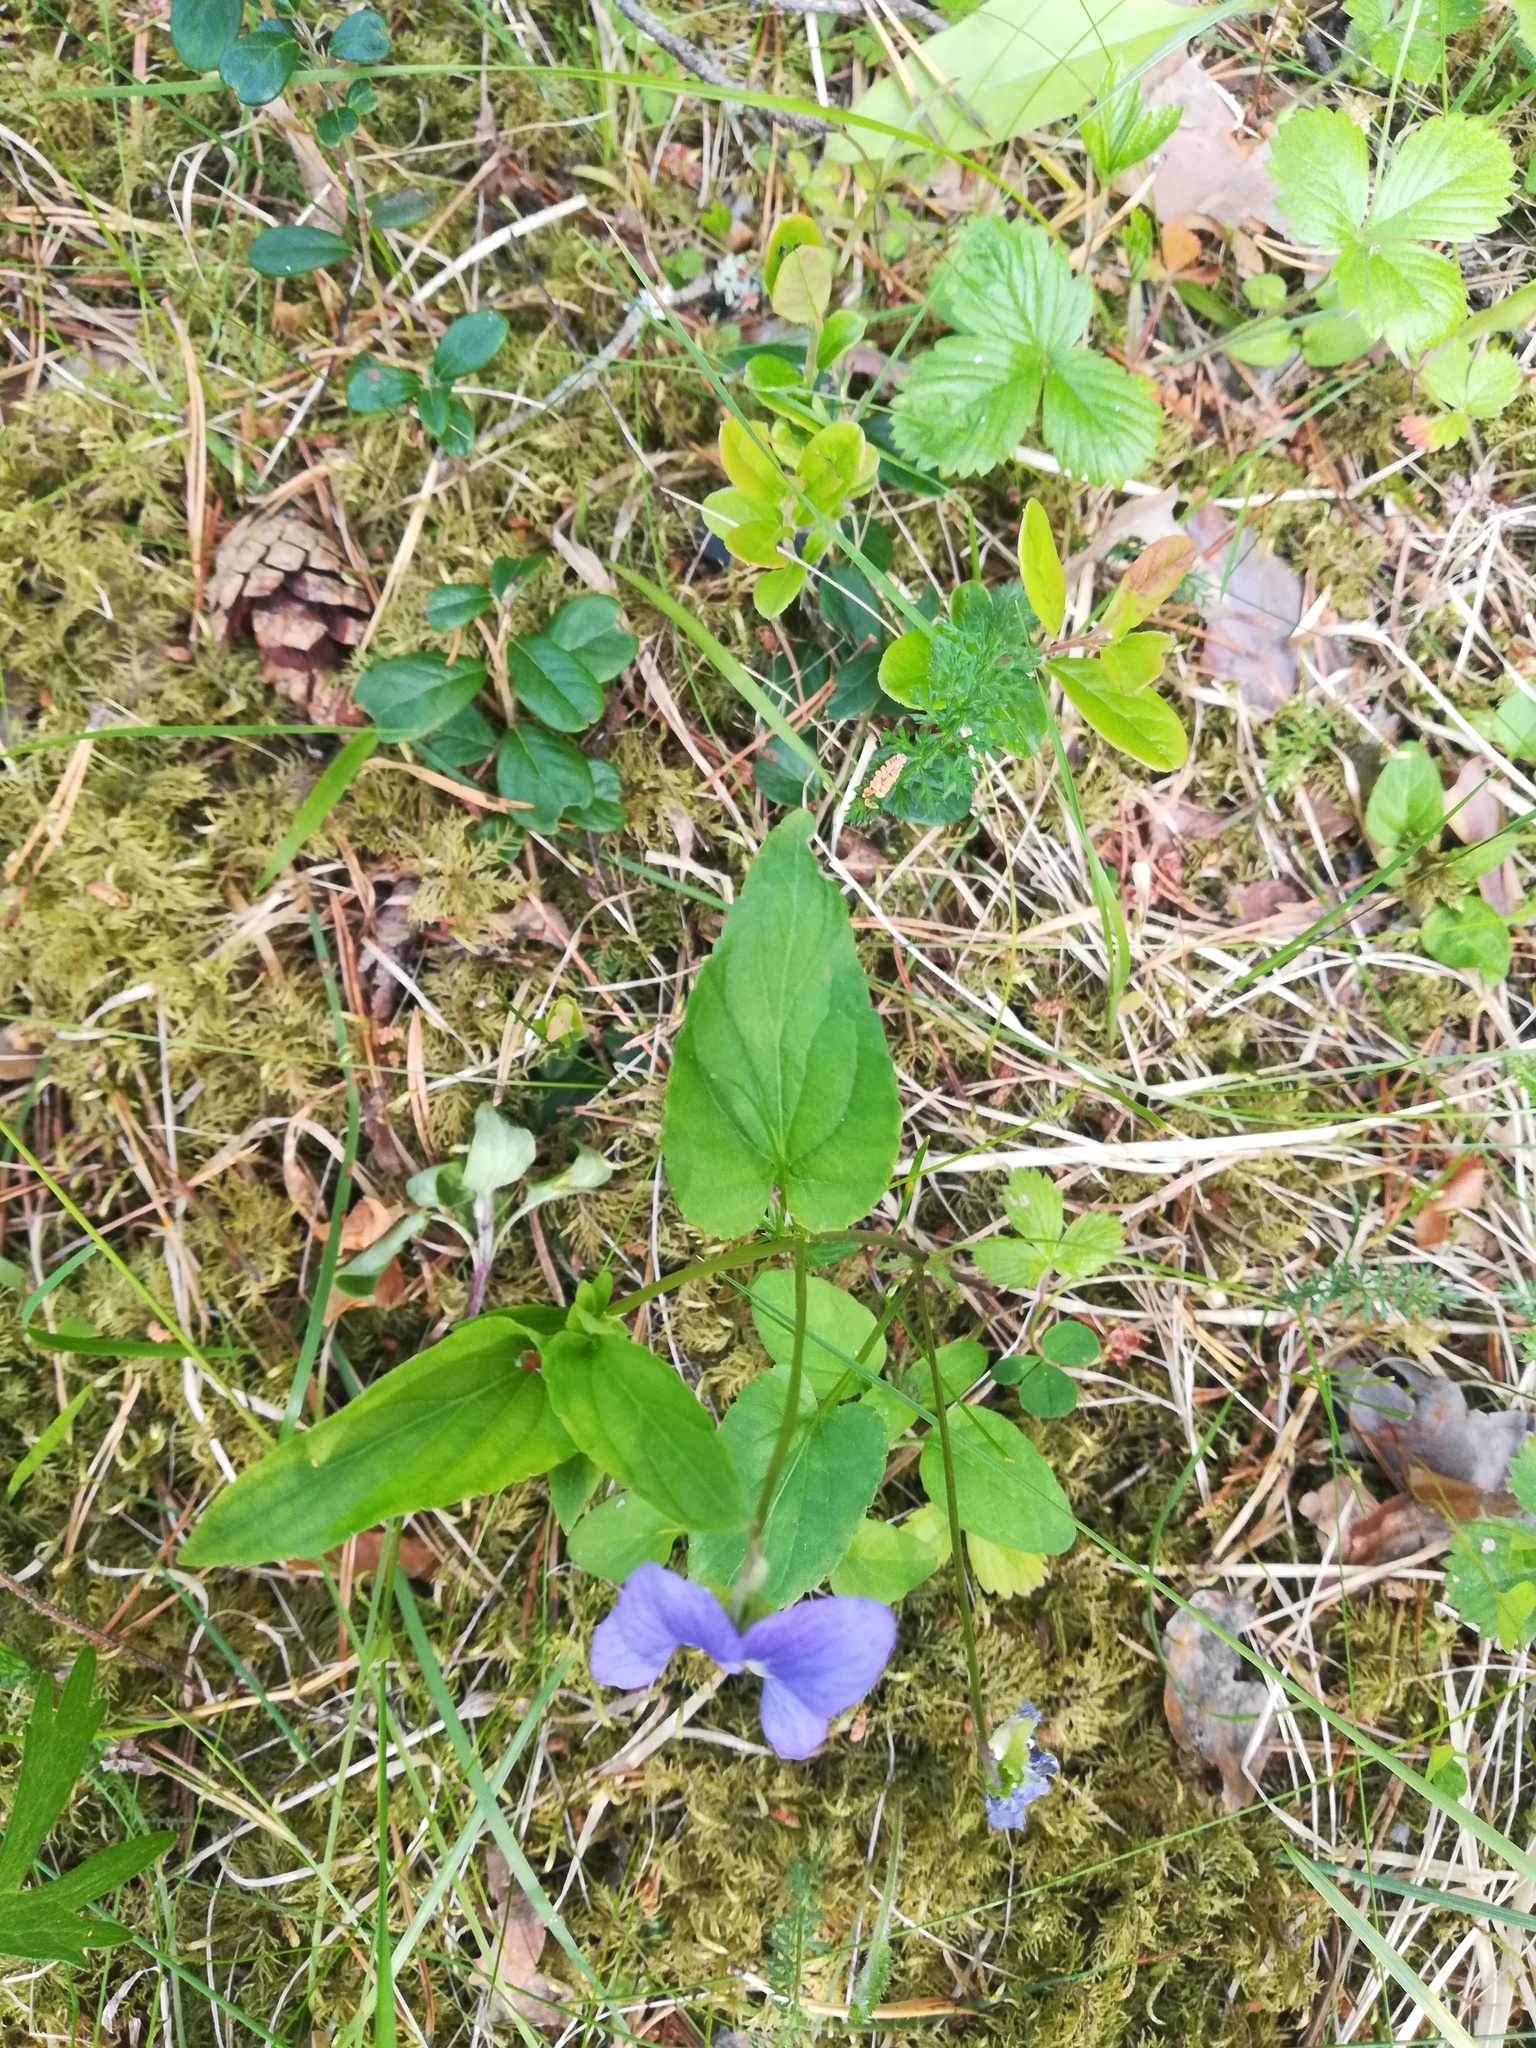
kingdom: Plantae
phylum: Tracheophyta
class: Magnoliopsida
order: Malpighiales
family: Violaceae
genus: Viola
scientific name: Viola
